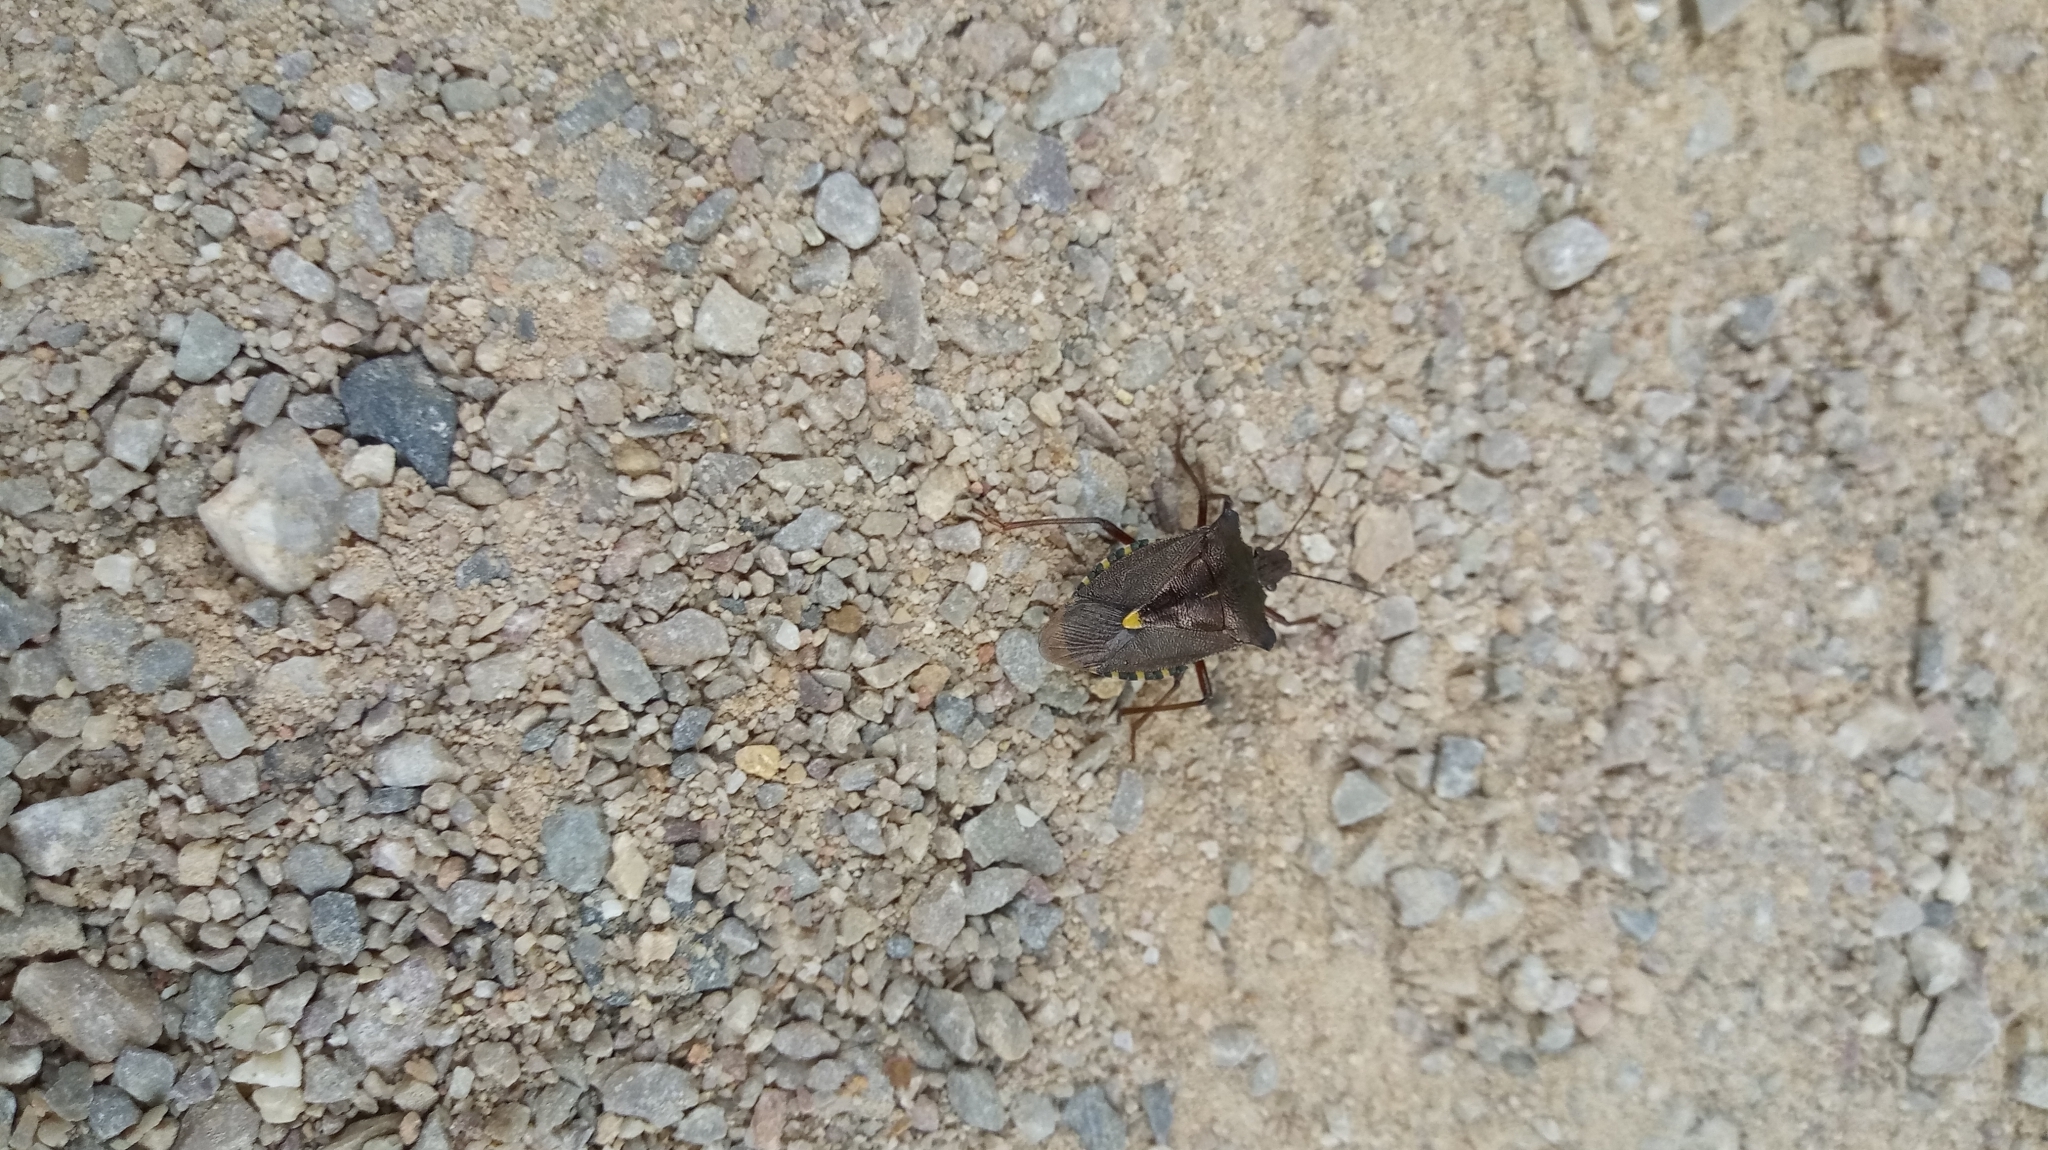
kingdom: Animalia
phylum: Arthropoda
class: Insecta
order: Hemiptera
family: Pentatomidae
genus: Pentatoma
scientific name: Pentatoma rufipes
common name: Forest bug
